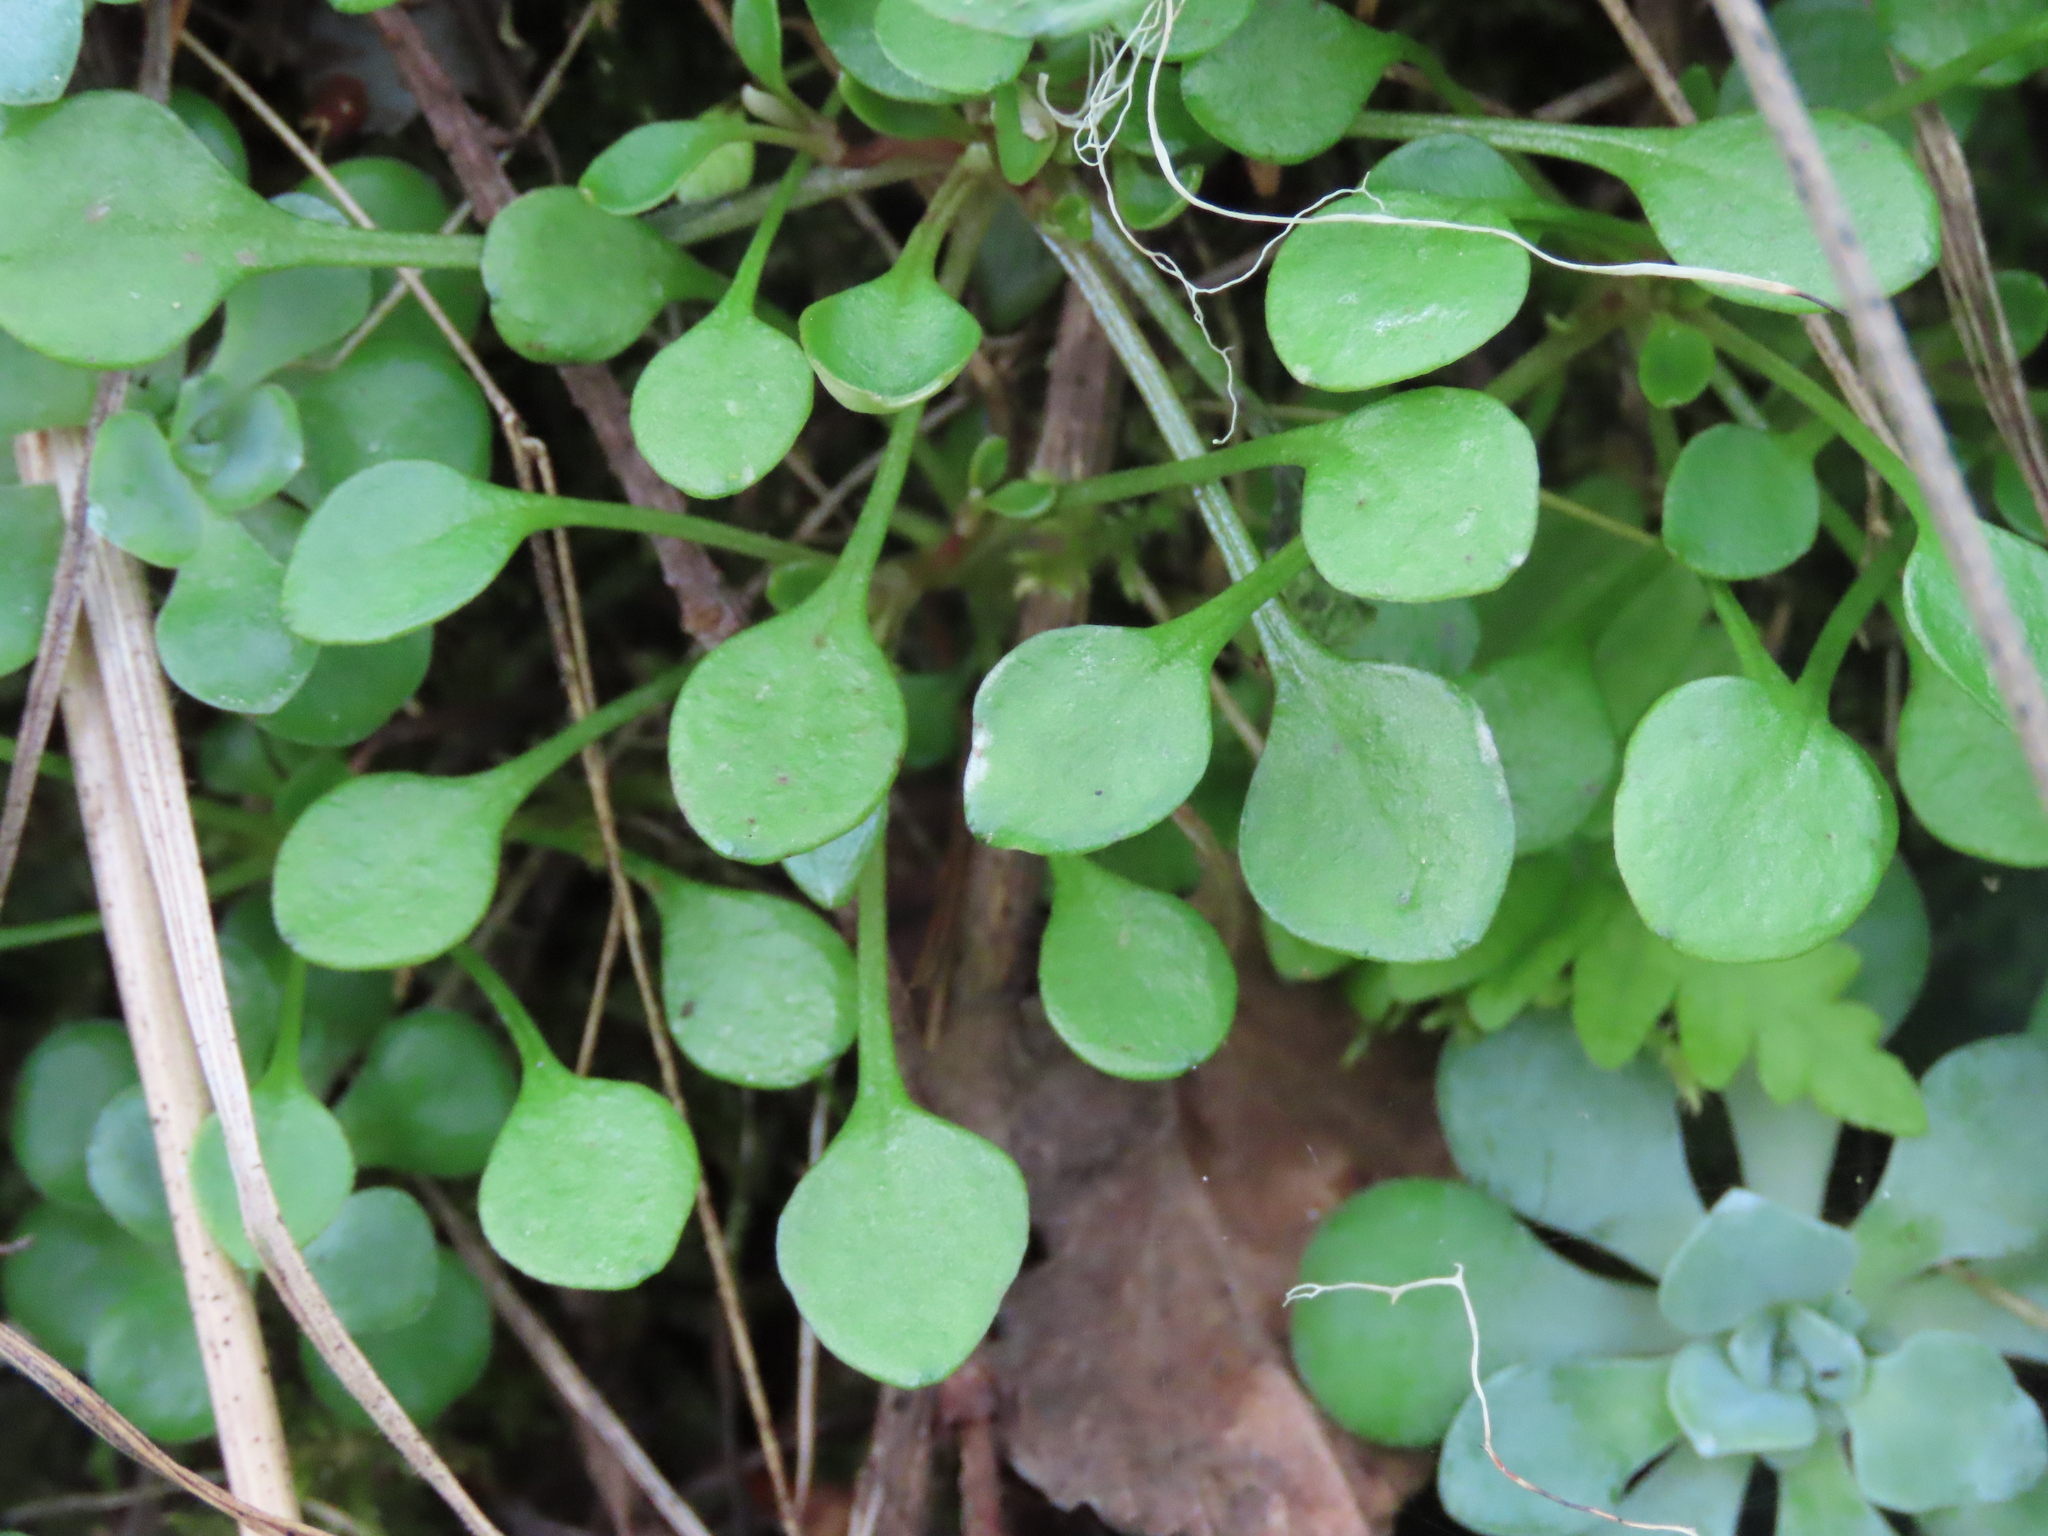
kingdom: Plantae
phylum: Tracheophyta
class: Magnoliopsida
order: Caryophyllales
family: Montiaceae
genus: Montia
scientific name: Montia parvifolia
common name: Small-leaved blinks
